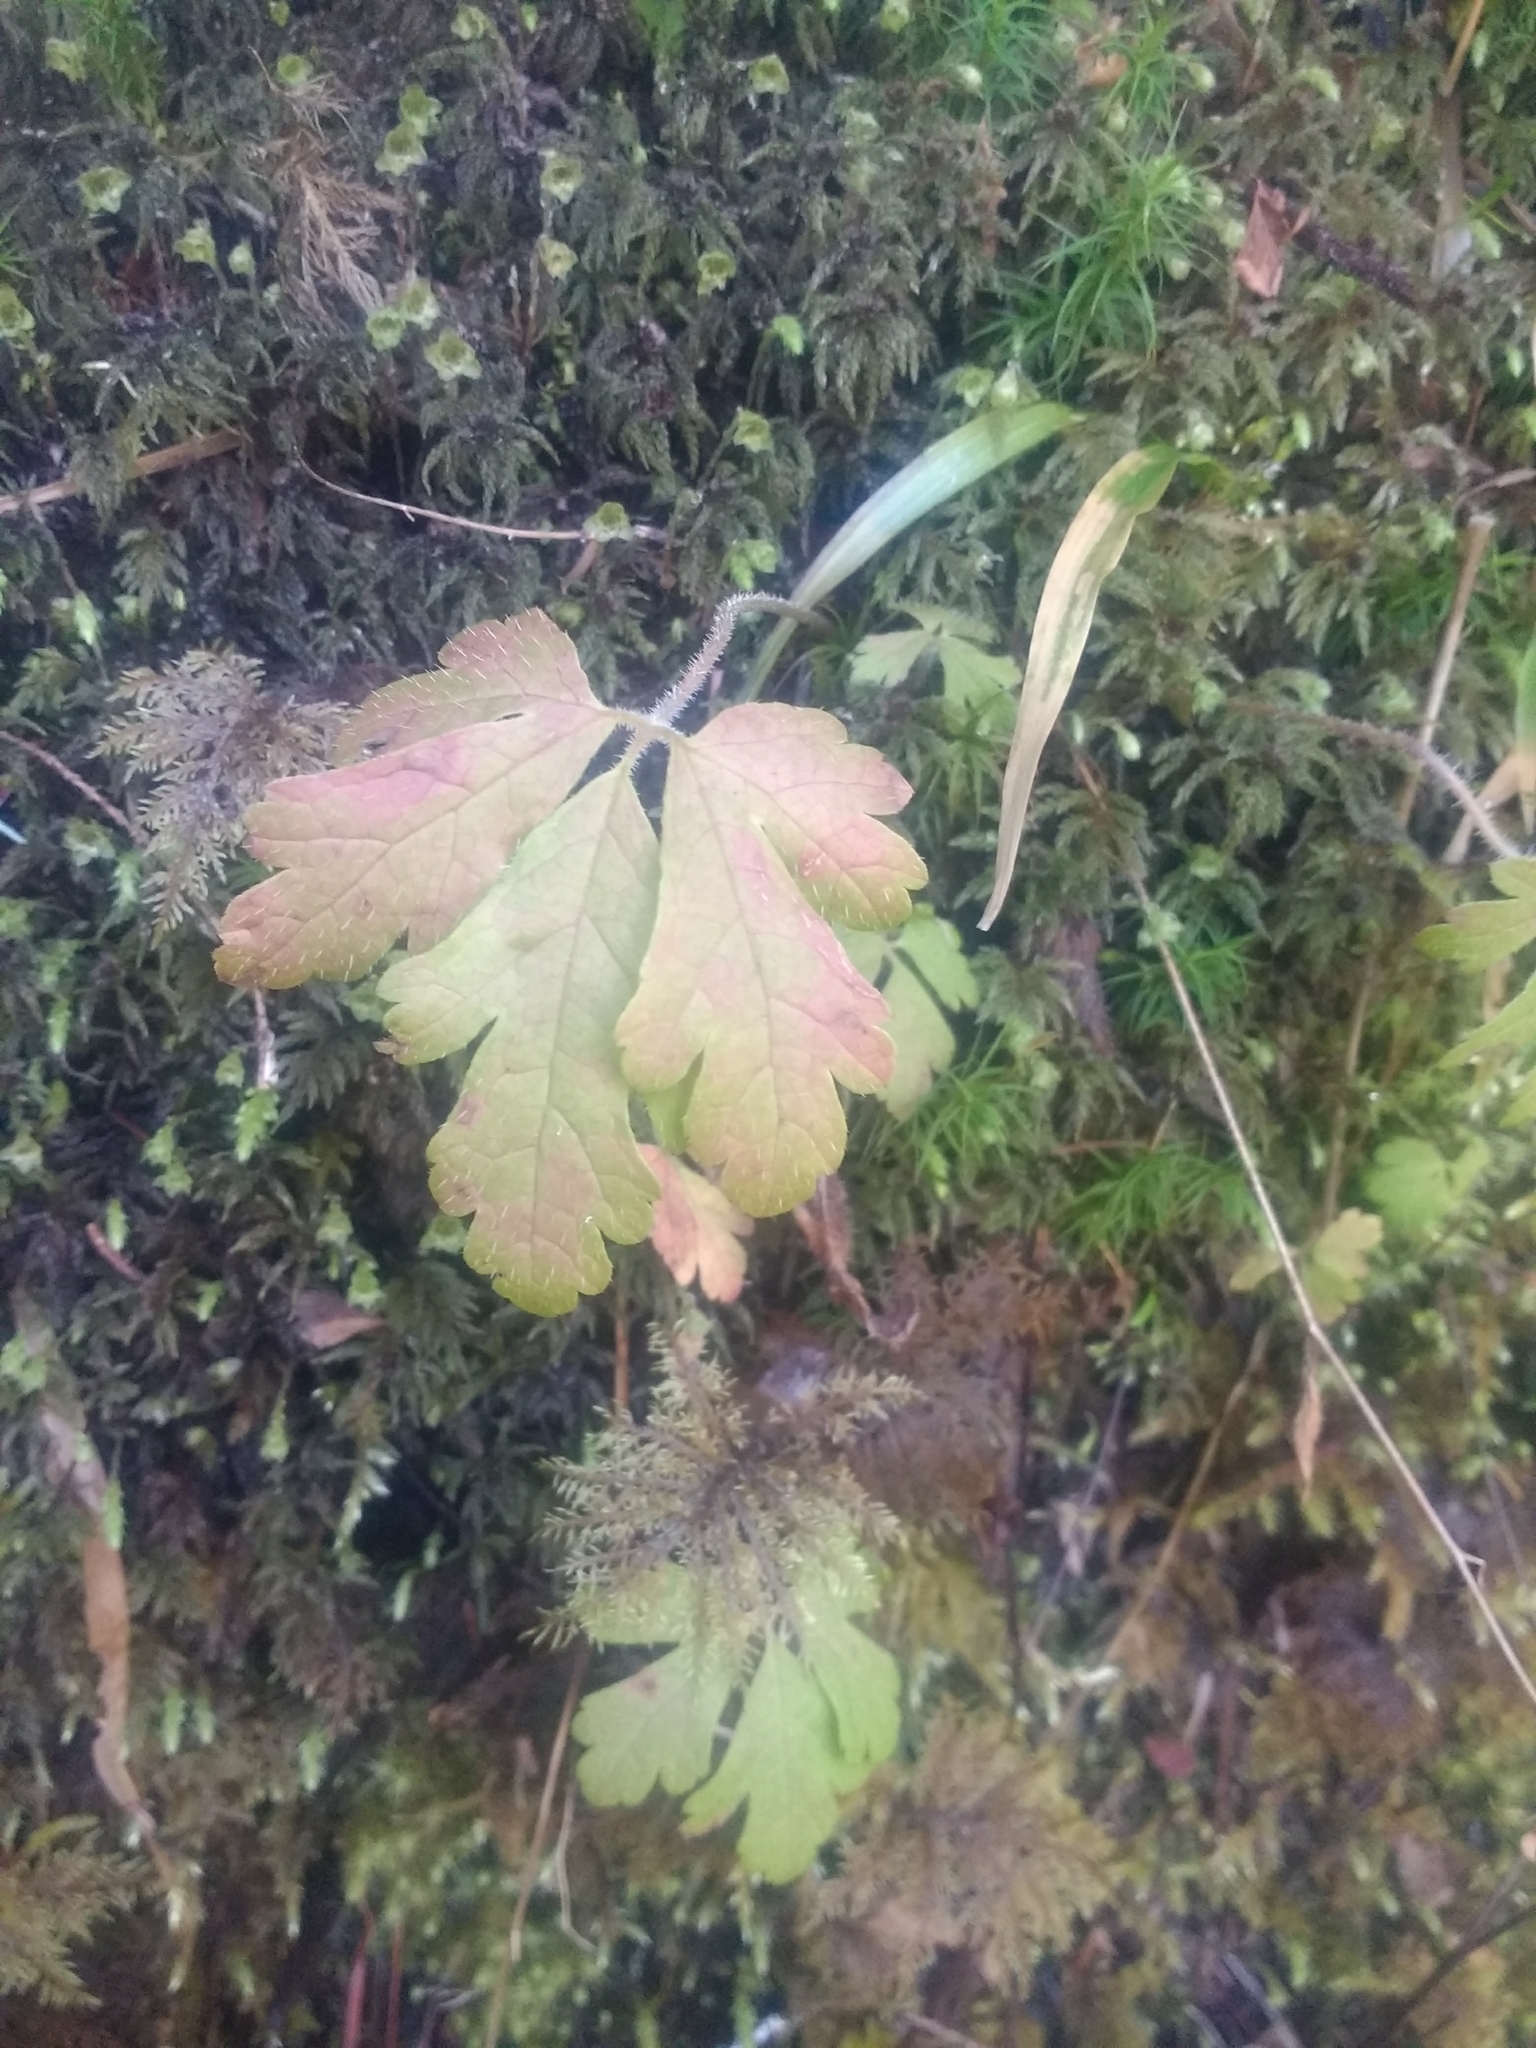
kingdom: Plantae
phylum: Tracheophyta
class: Magnoliopsida
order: Saxifragales
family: Saxifragaceae
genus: Tiarella
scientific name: Tiarella trifoliata
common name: Sugar-scoop
